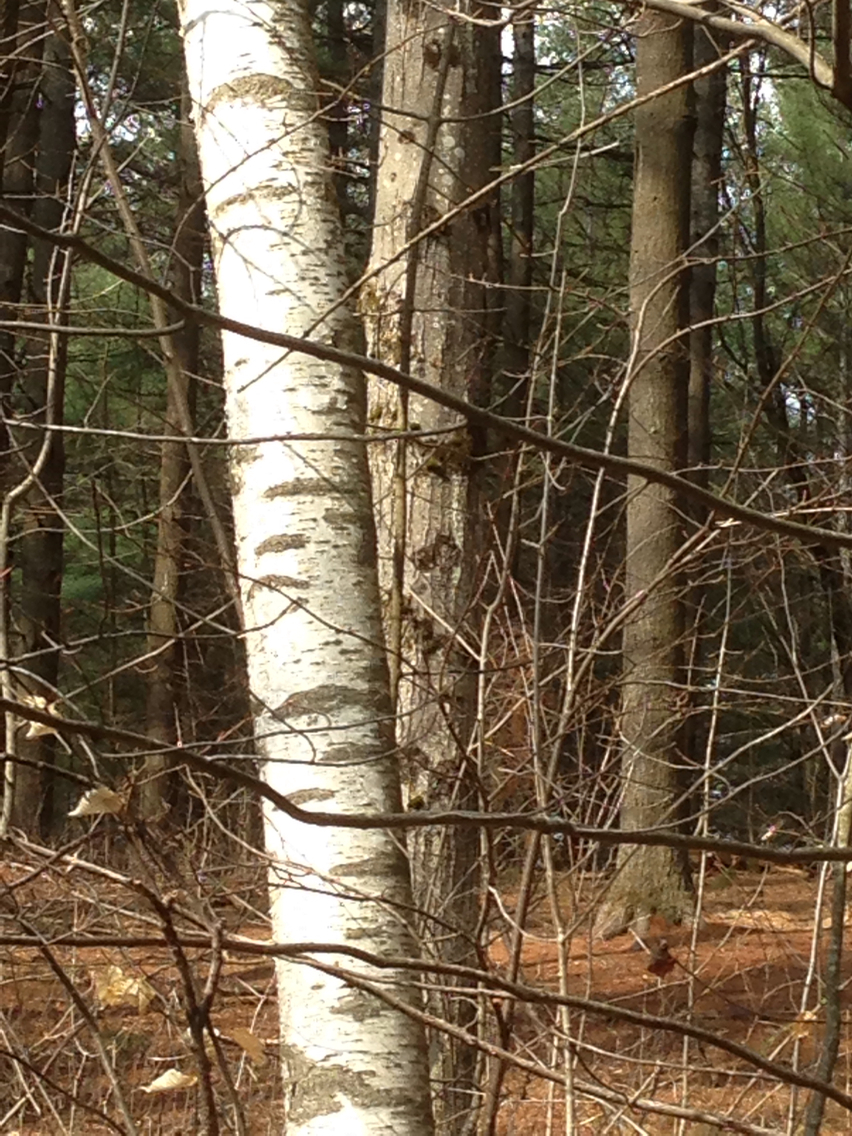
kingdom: Plantae
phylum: Tracheophyta
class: Magnoliopsida
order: Fagales
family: Betulaceae
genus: Betula
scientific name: Betula populifolia
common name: Fire birch
